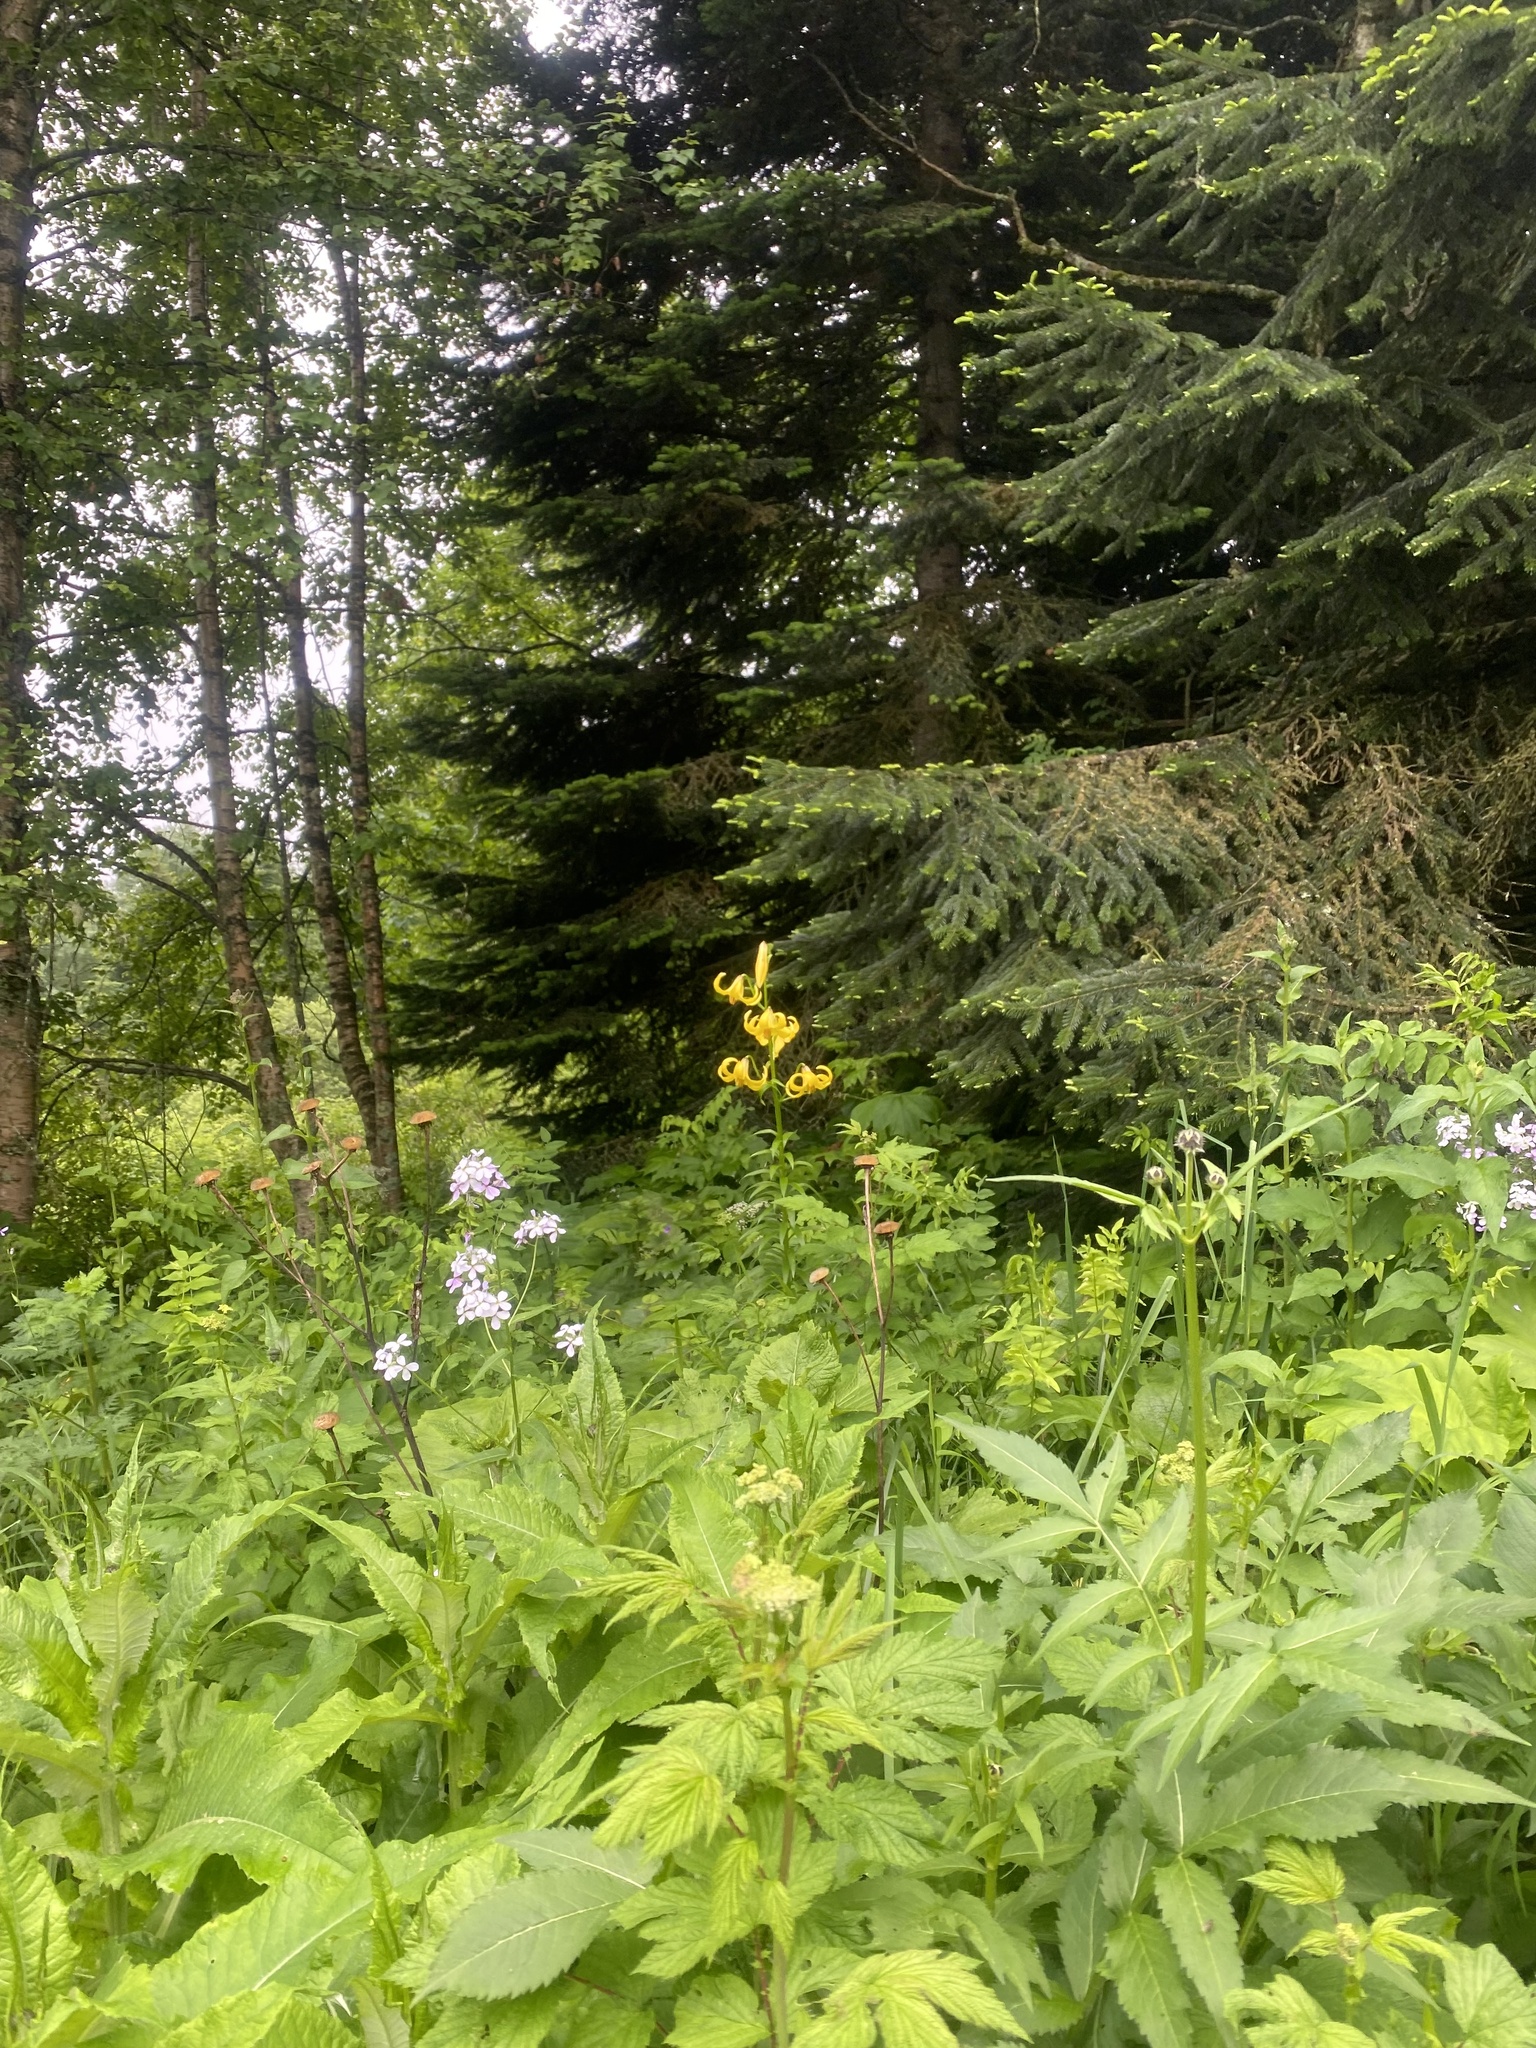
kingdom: Plantae
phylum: Tracheophyta
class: Liliopsida
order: Liliales
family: Liliaceae
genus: Lilium
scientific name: Lilium monadelphum
